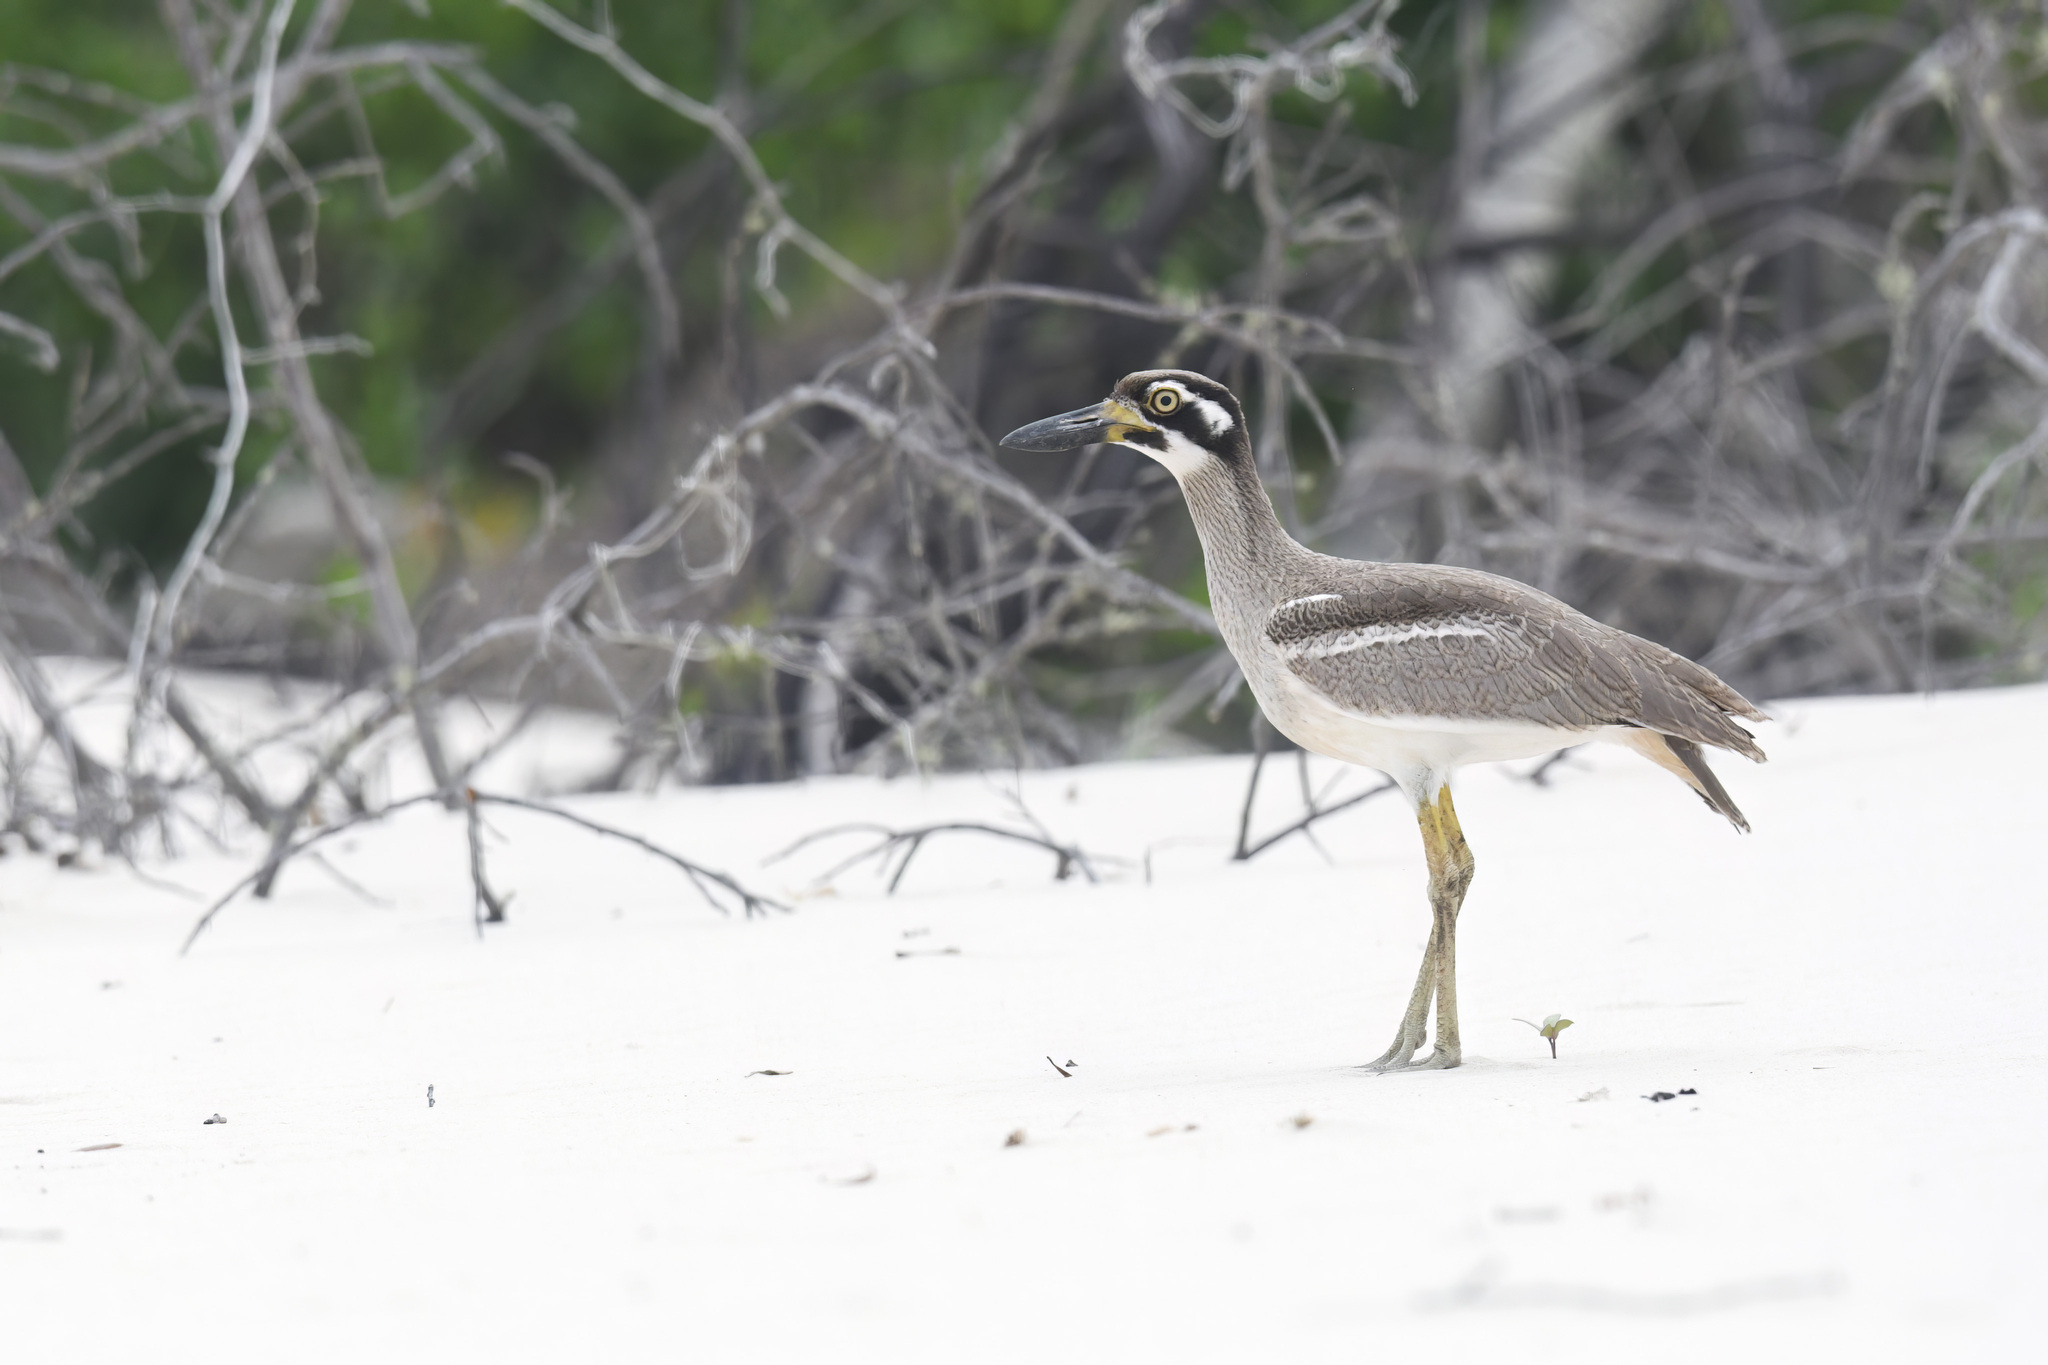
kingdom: Animalia
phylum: Chordata
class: Aves
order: Charadriiformes
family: Burhinidae
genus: Esacus
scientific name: Esacus magnirostris
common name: Beach stone-curlew
